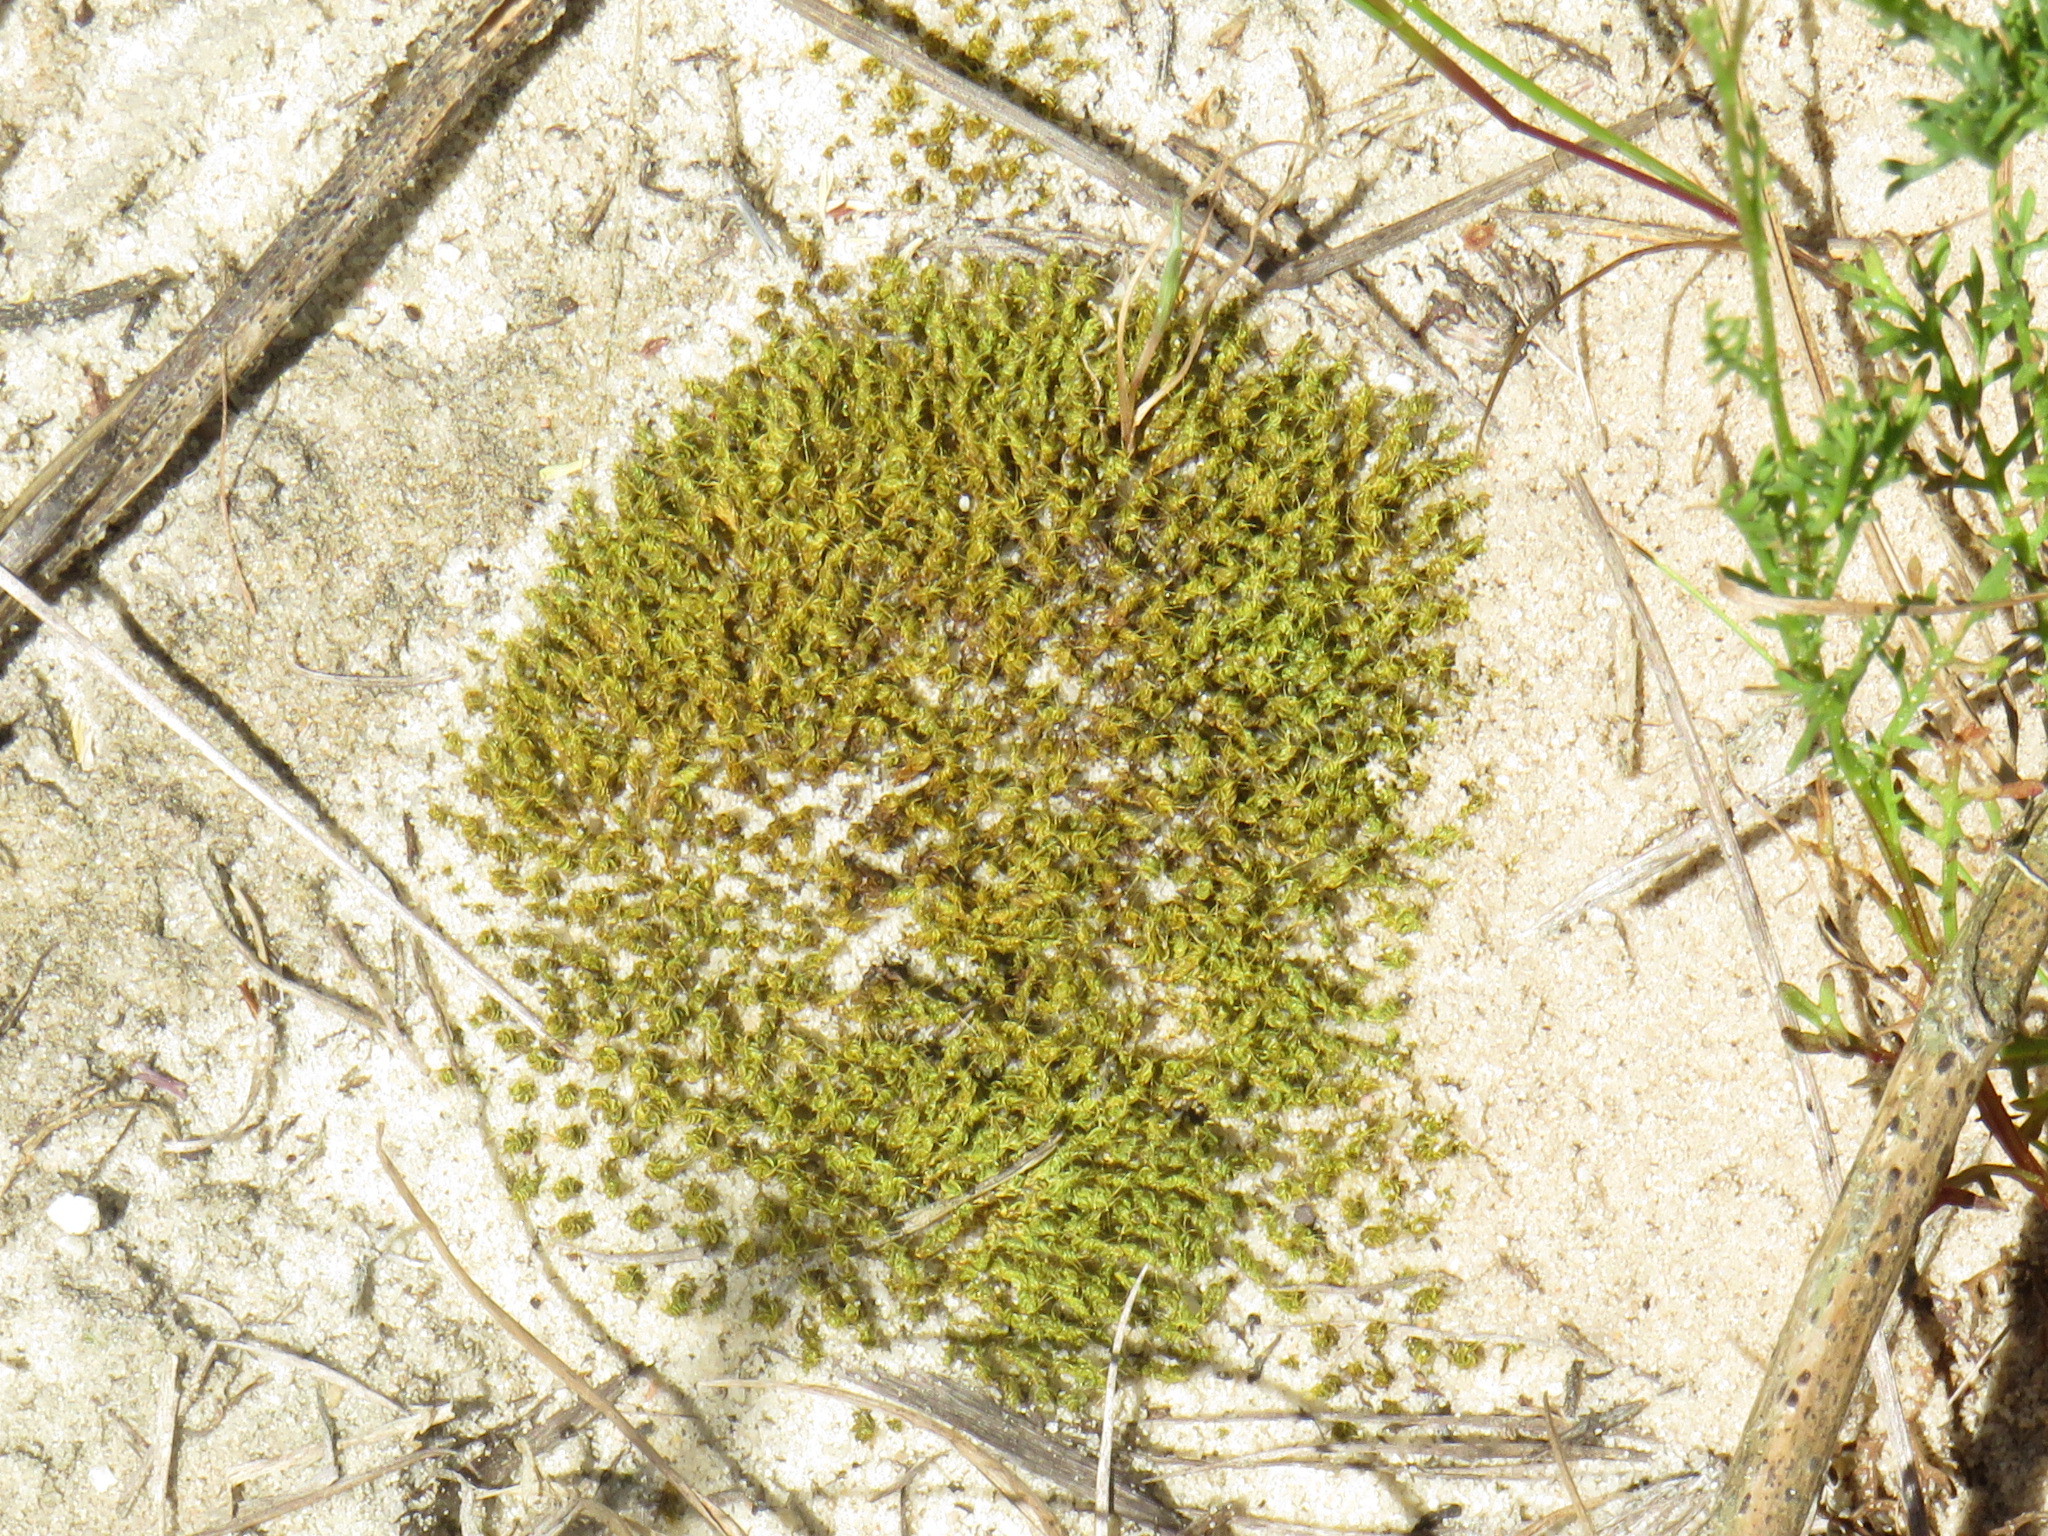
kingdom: Plantae
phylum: Bryophyta
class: Bryopsida
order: Pottiales
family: Pottiaceae
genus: Pseudocrossidium
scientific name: Pseudocrossidium crinitum
